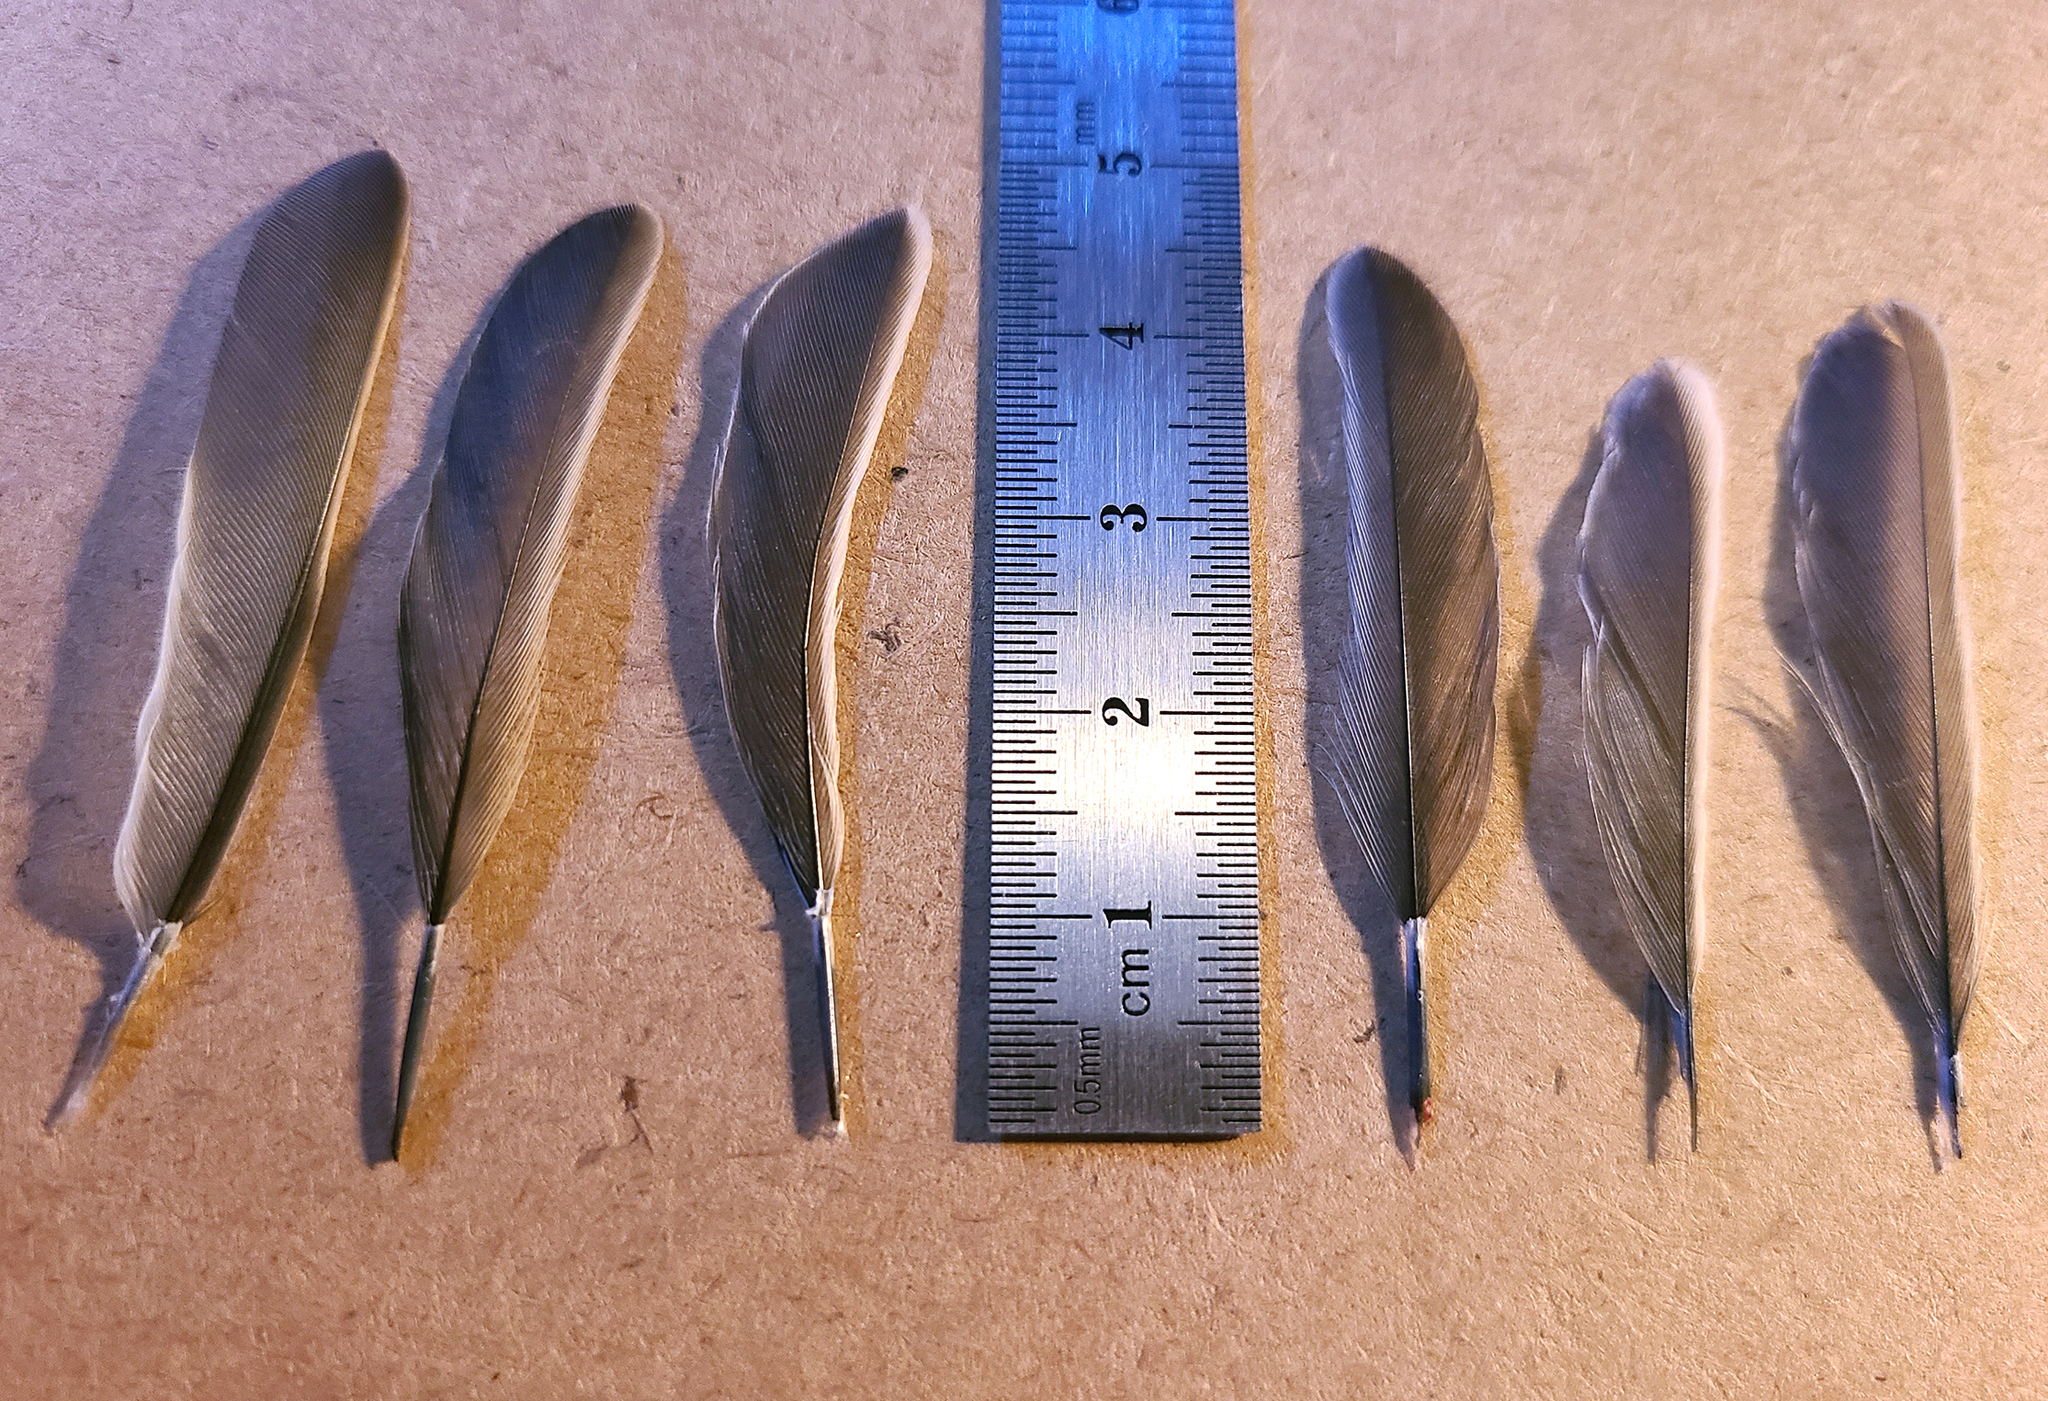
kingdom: Animalia
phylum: Chordata
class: Aves
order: Passeriformes
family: Paridae
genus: Poecile
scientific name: Poecile atricapillus
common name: Black-capped chickadee
